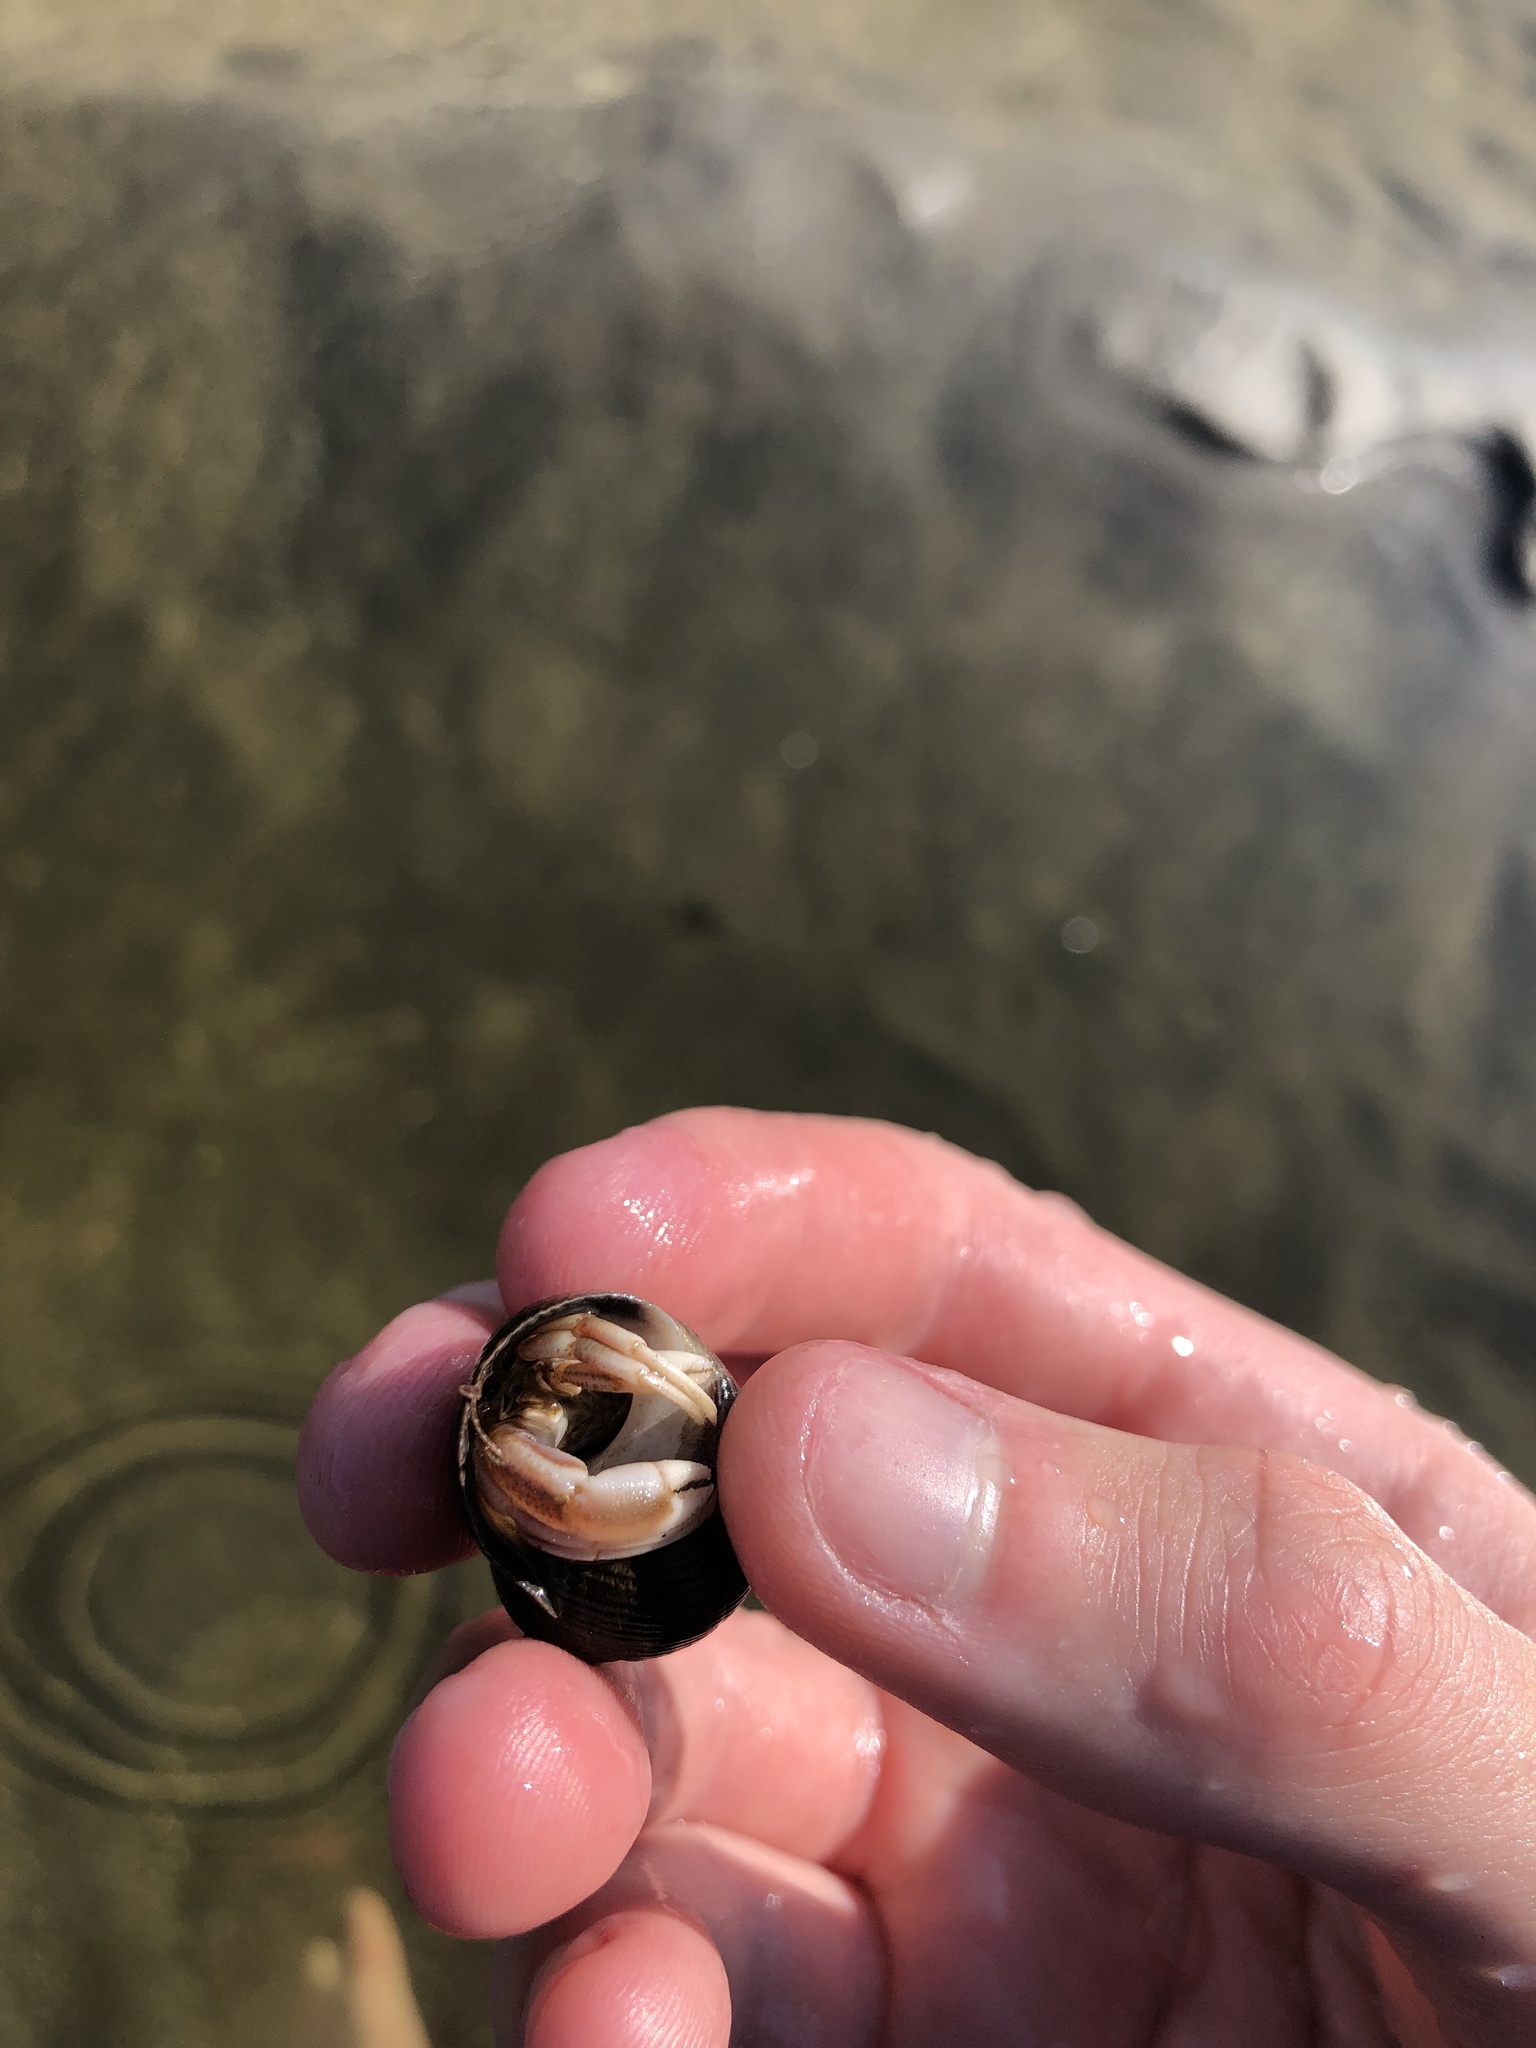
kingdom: Animalia
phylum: Arthropoda
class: Malacostraca
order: Decapoda
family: Paguridae
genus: Pagurus
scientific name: Pagurus longicarpus
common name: Long-armed hermit crab
